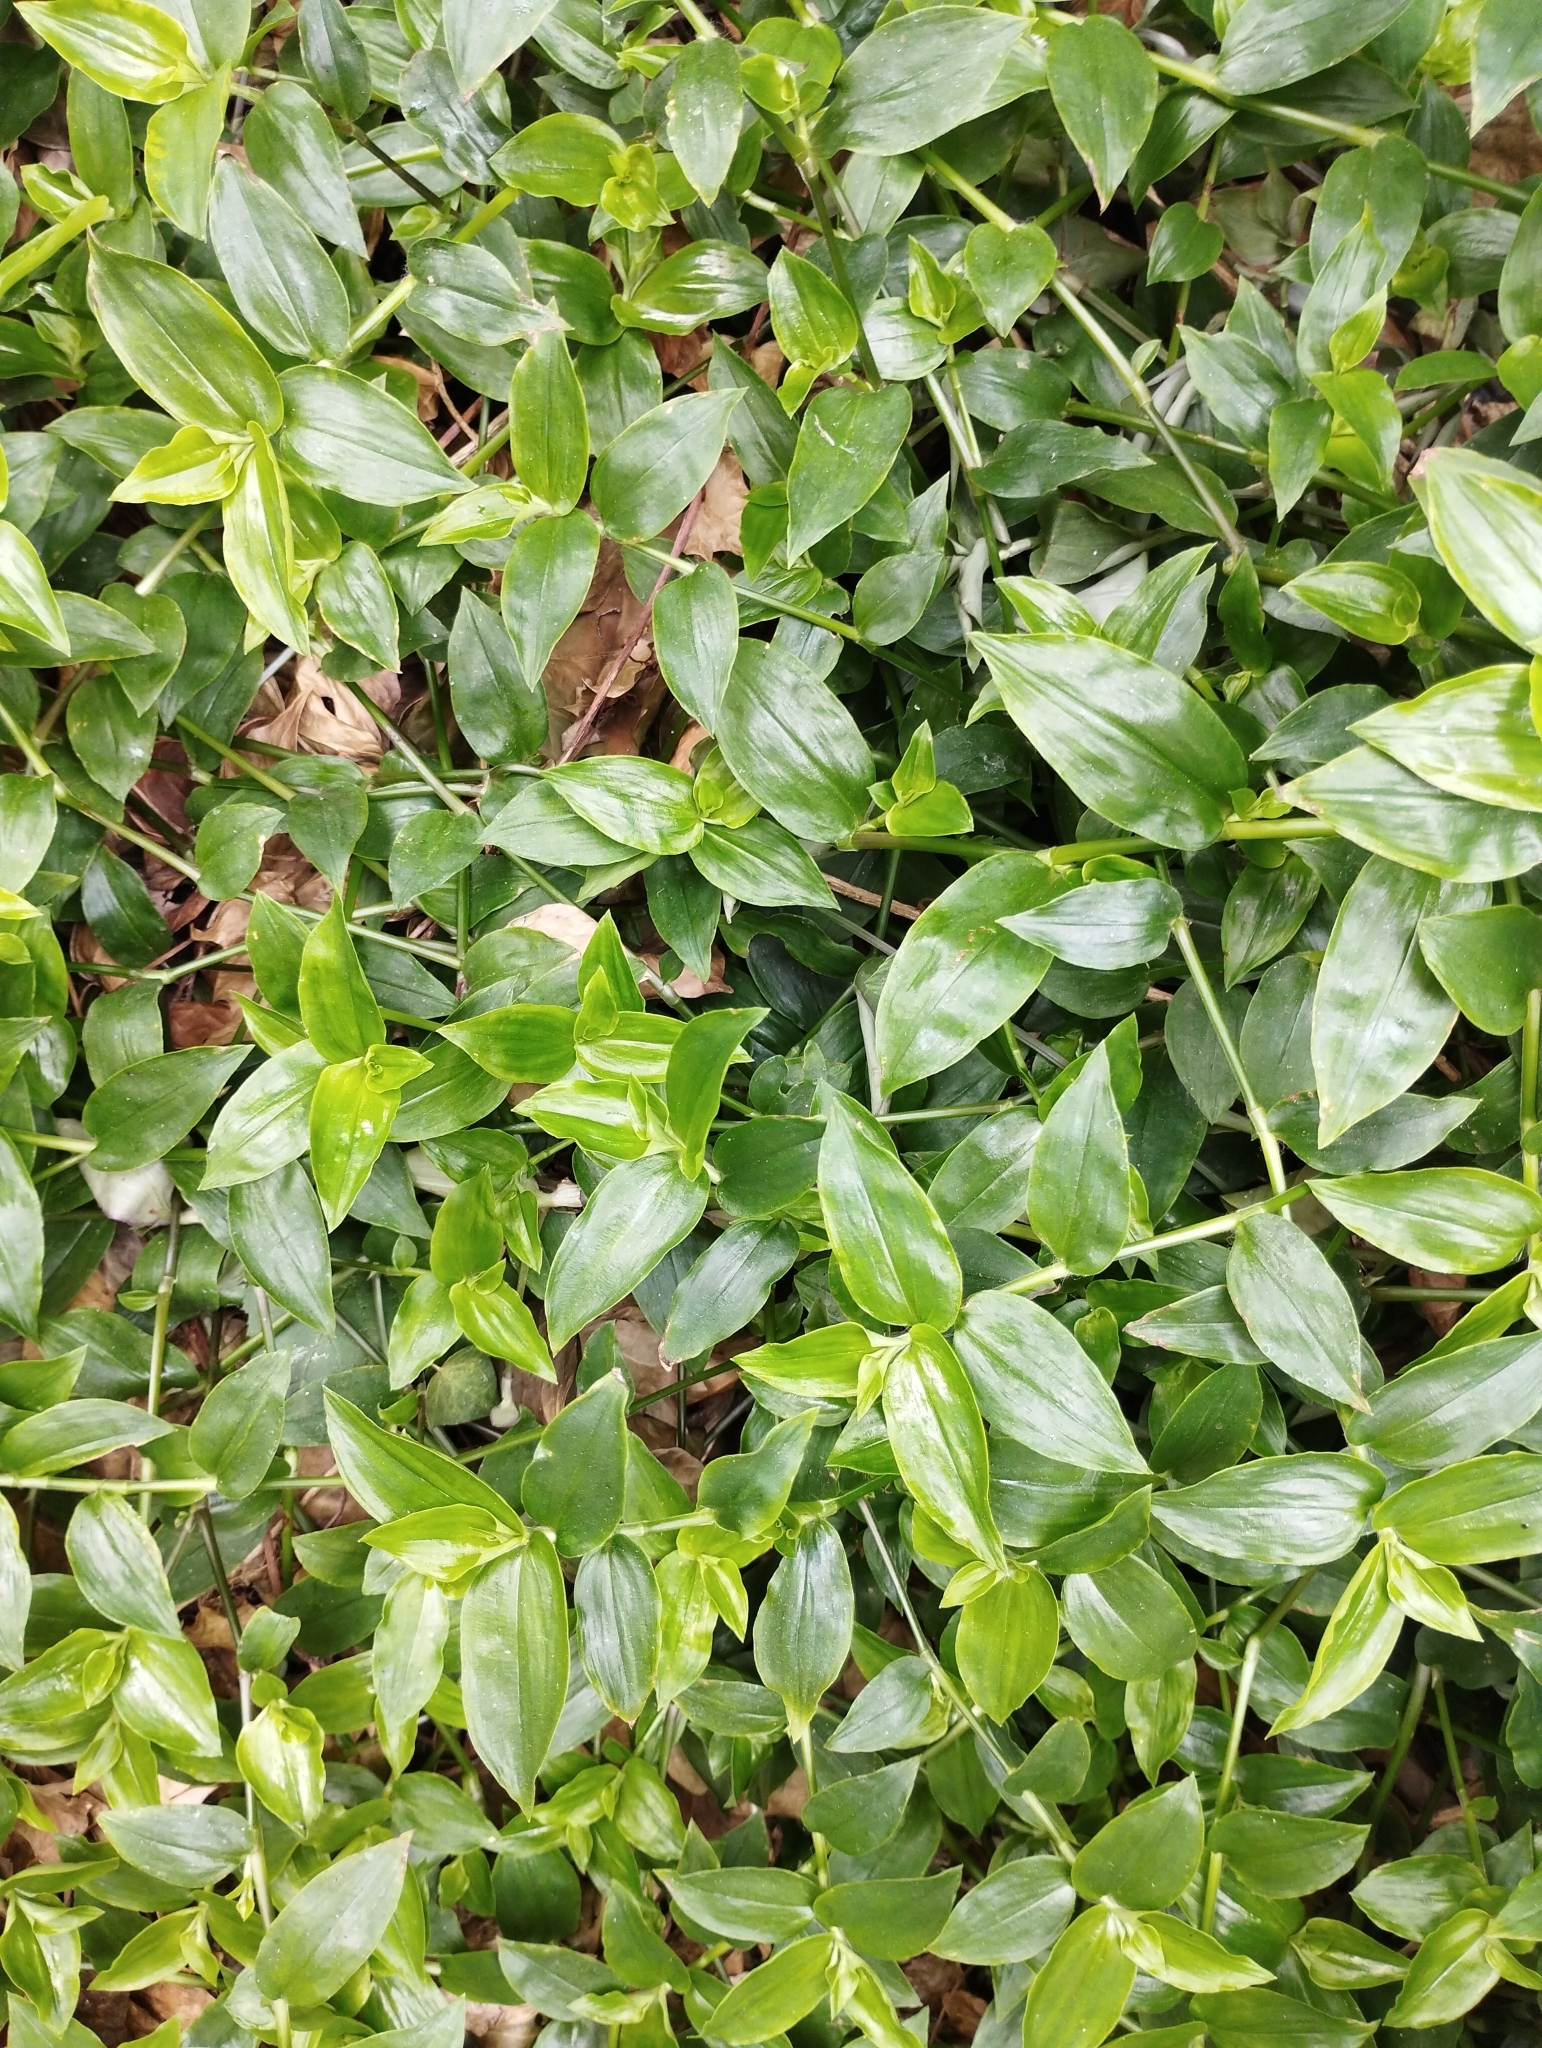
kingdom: Plantae
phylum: Tracheophyta
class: Liliopsida
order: Commelinales
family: Commelinaceae
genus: Tradescantia
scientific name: Tradescantia fluminensis
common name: Wandering-jew
